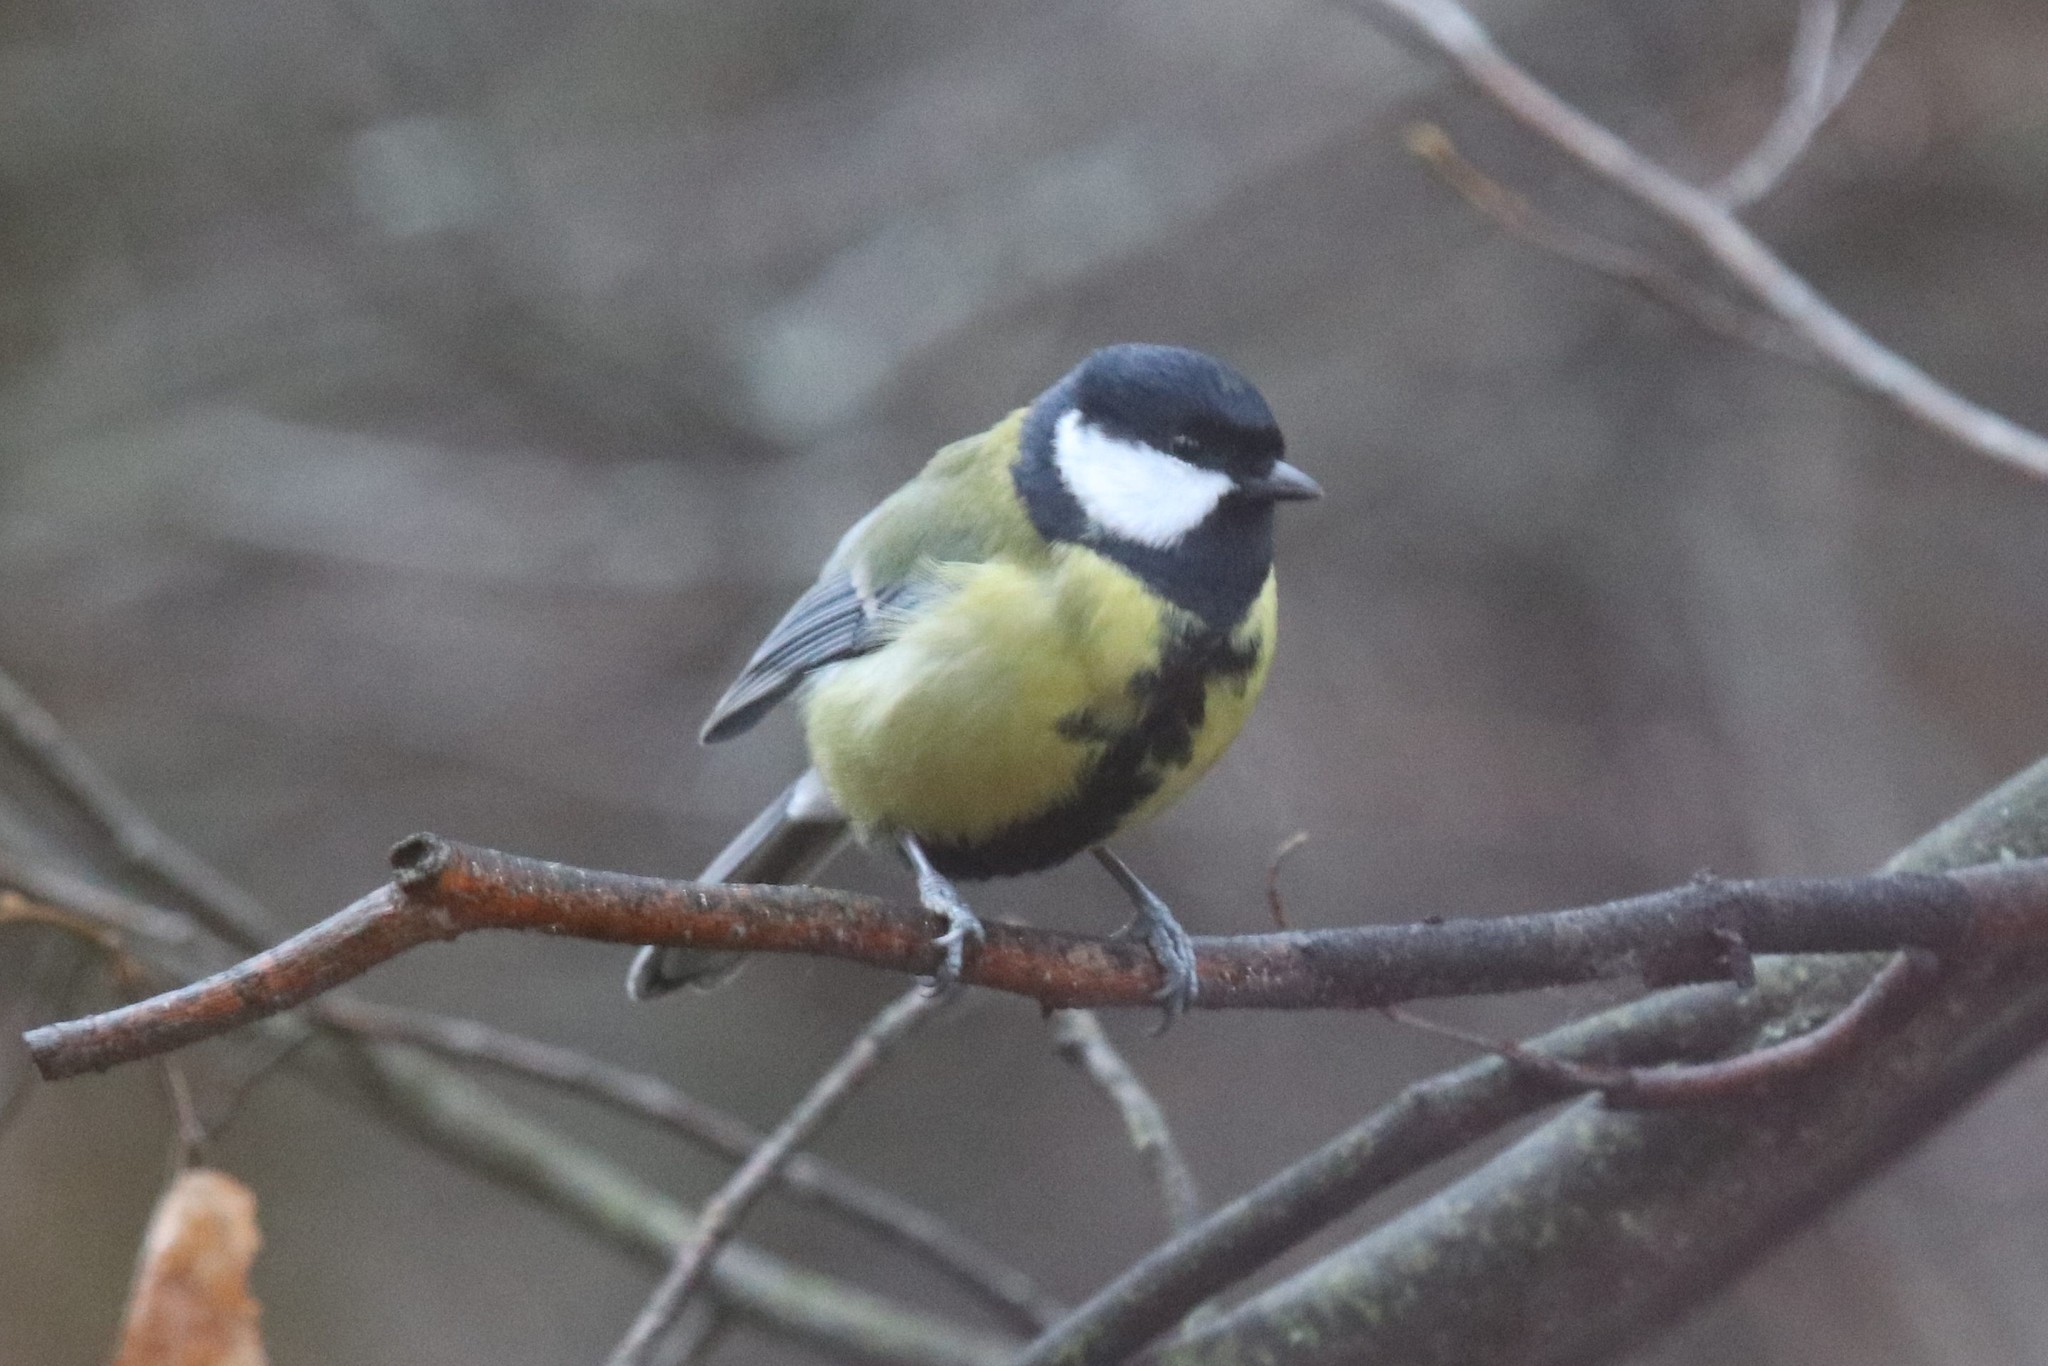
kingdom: Animalia
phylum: Chordata
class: Aves
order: Passeriformes
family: Paridae
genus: Parus
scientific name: Parus major
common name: Great tit
